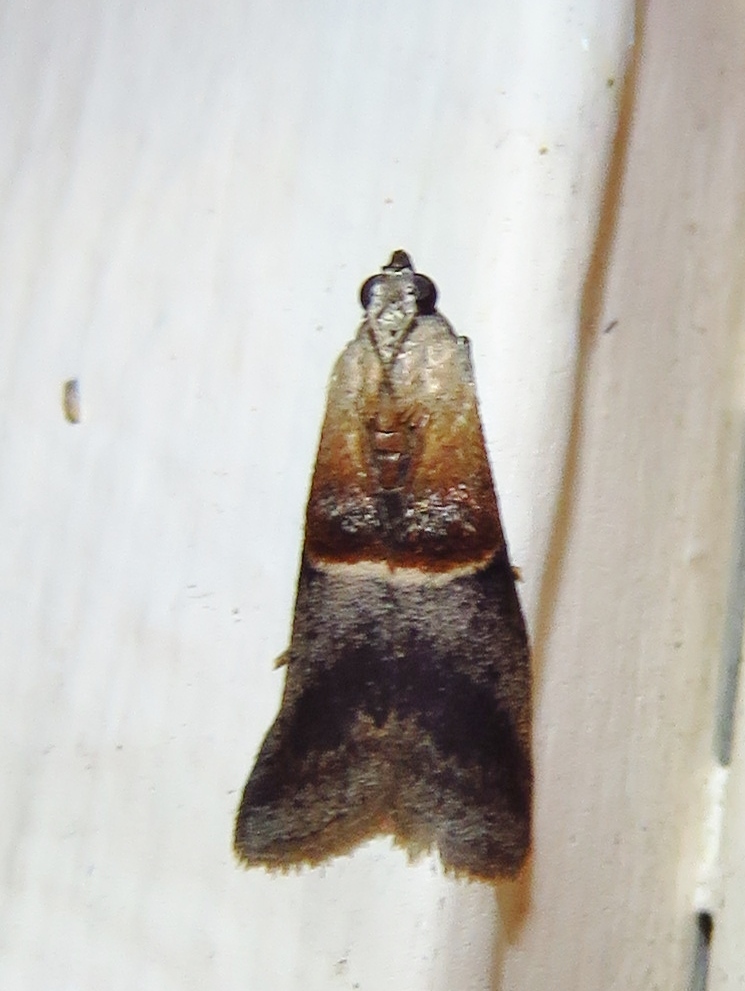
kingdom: Animalia
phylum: Arthropoda
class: Insecta
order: Lepidoptera
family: Pyralidae
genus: Acrobasis
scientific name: Acrobasis demotella
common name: Walnut shoot moth
